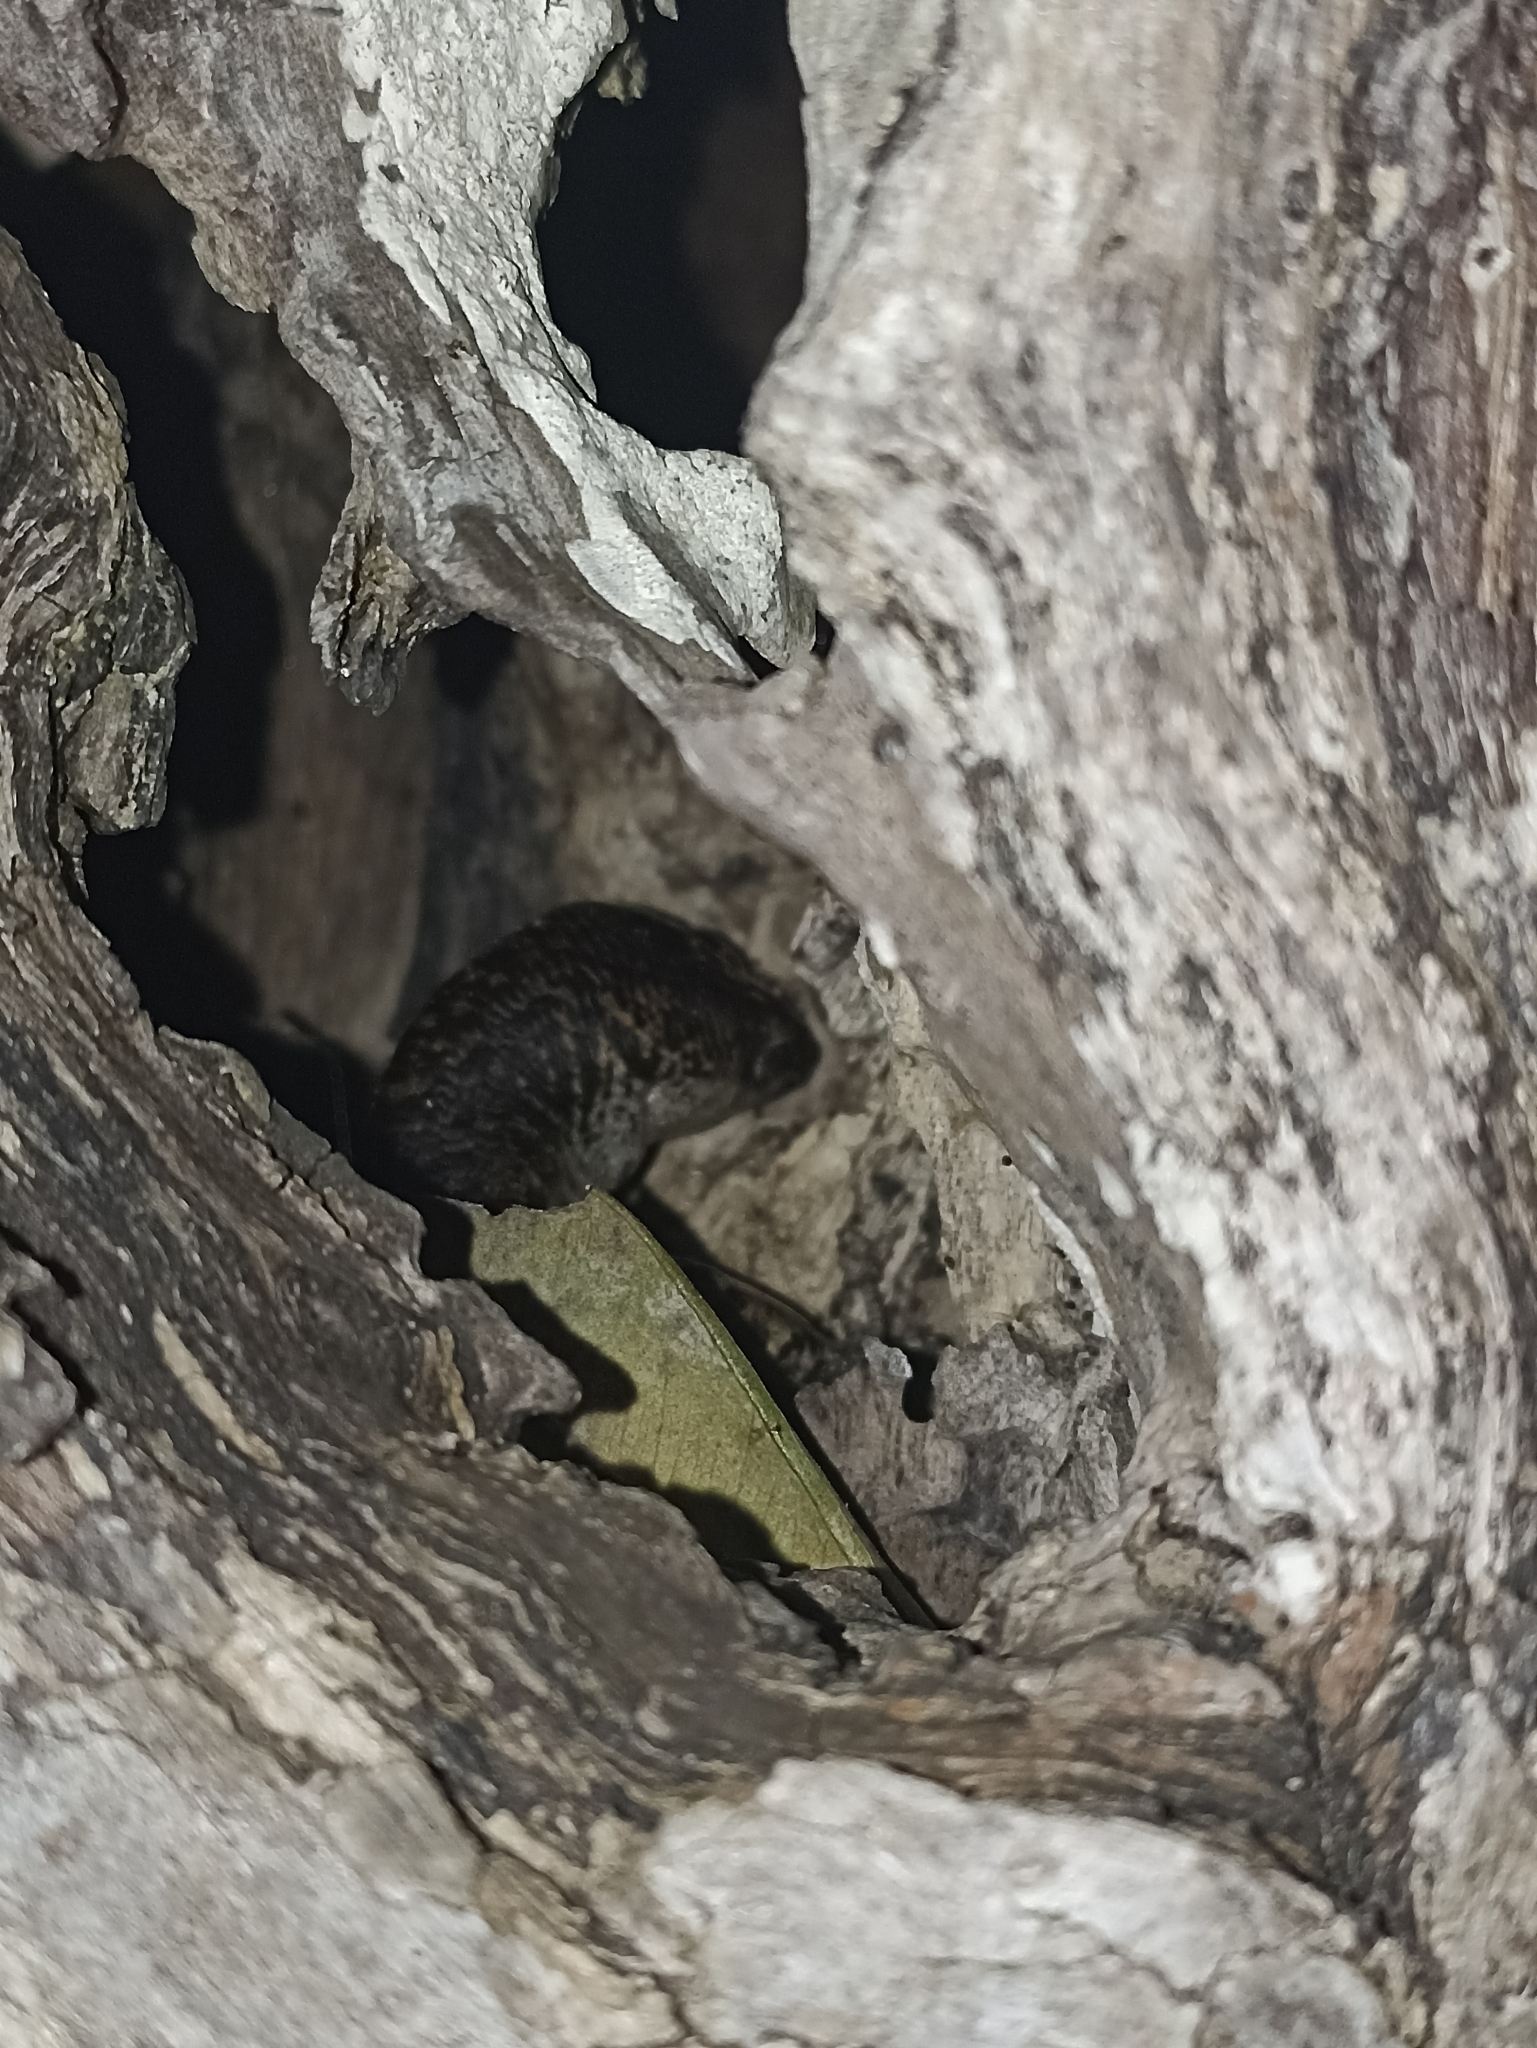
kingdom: Animalia
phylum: Chordata
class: Squamata
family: Scincidae
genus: Oligosoma
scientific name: Oligosoma suteri
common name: Egg-laying skink
